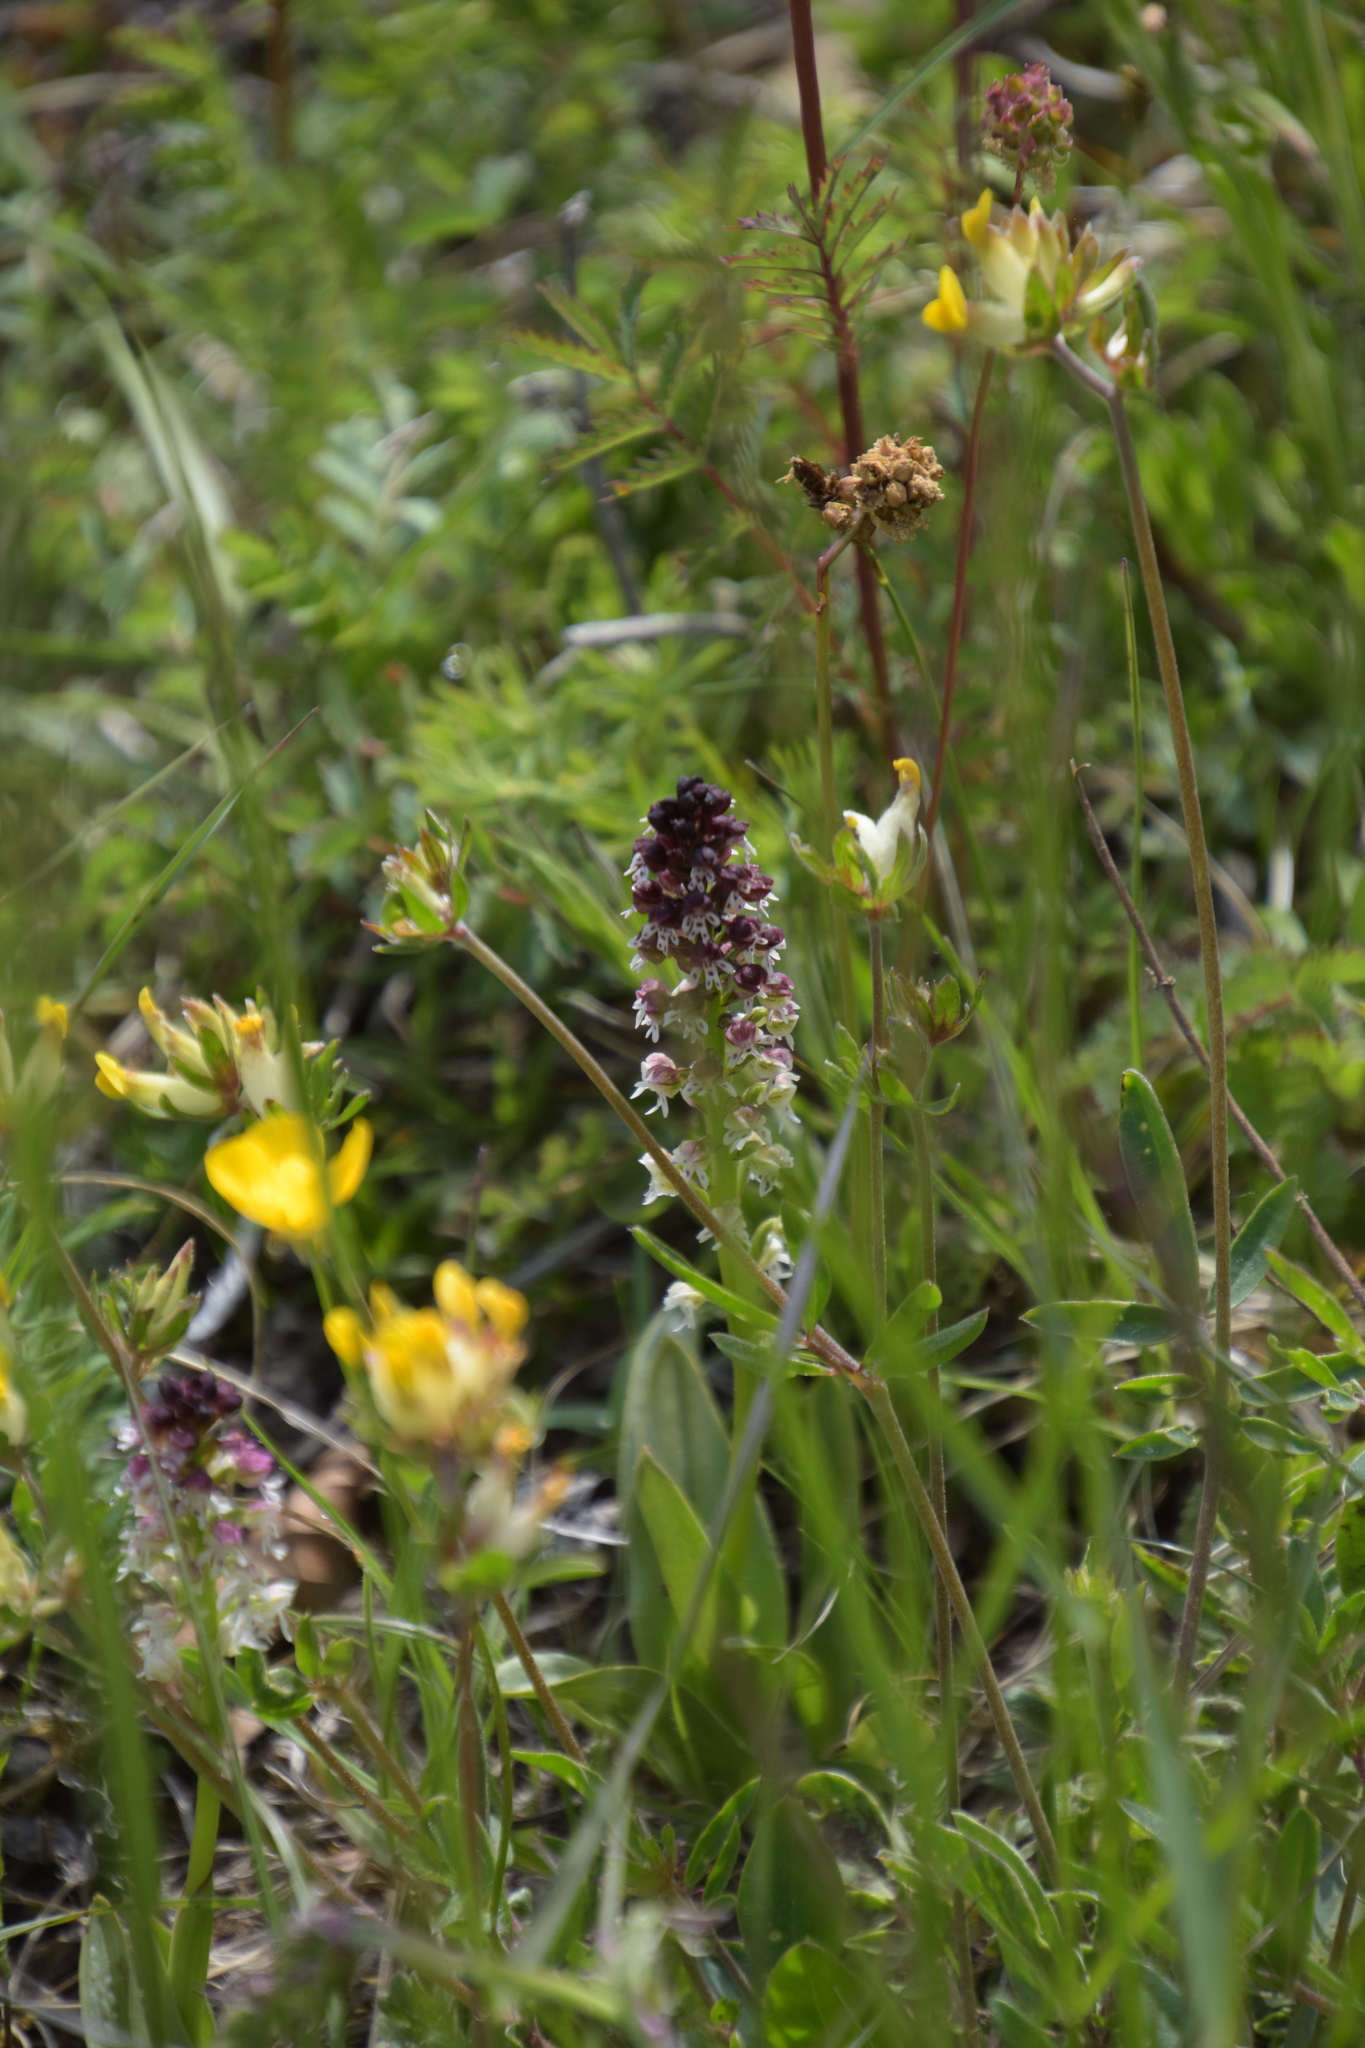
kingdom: Plantae
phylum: Tracheophyta
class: Liliopsida
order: Asparagales
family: Orchidaceae
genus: Neotinea
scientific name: Neotinea ustulata
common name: Burnt orchid
